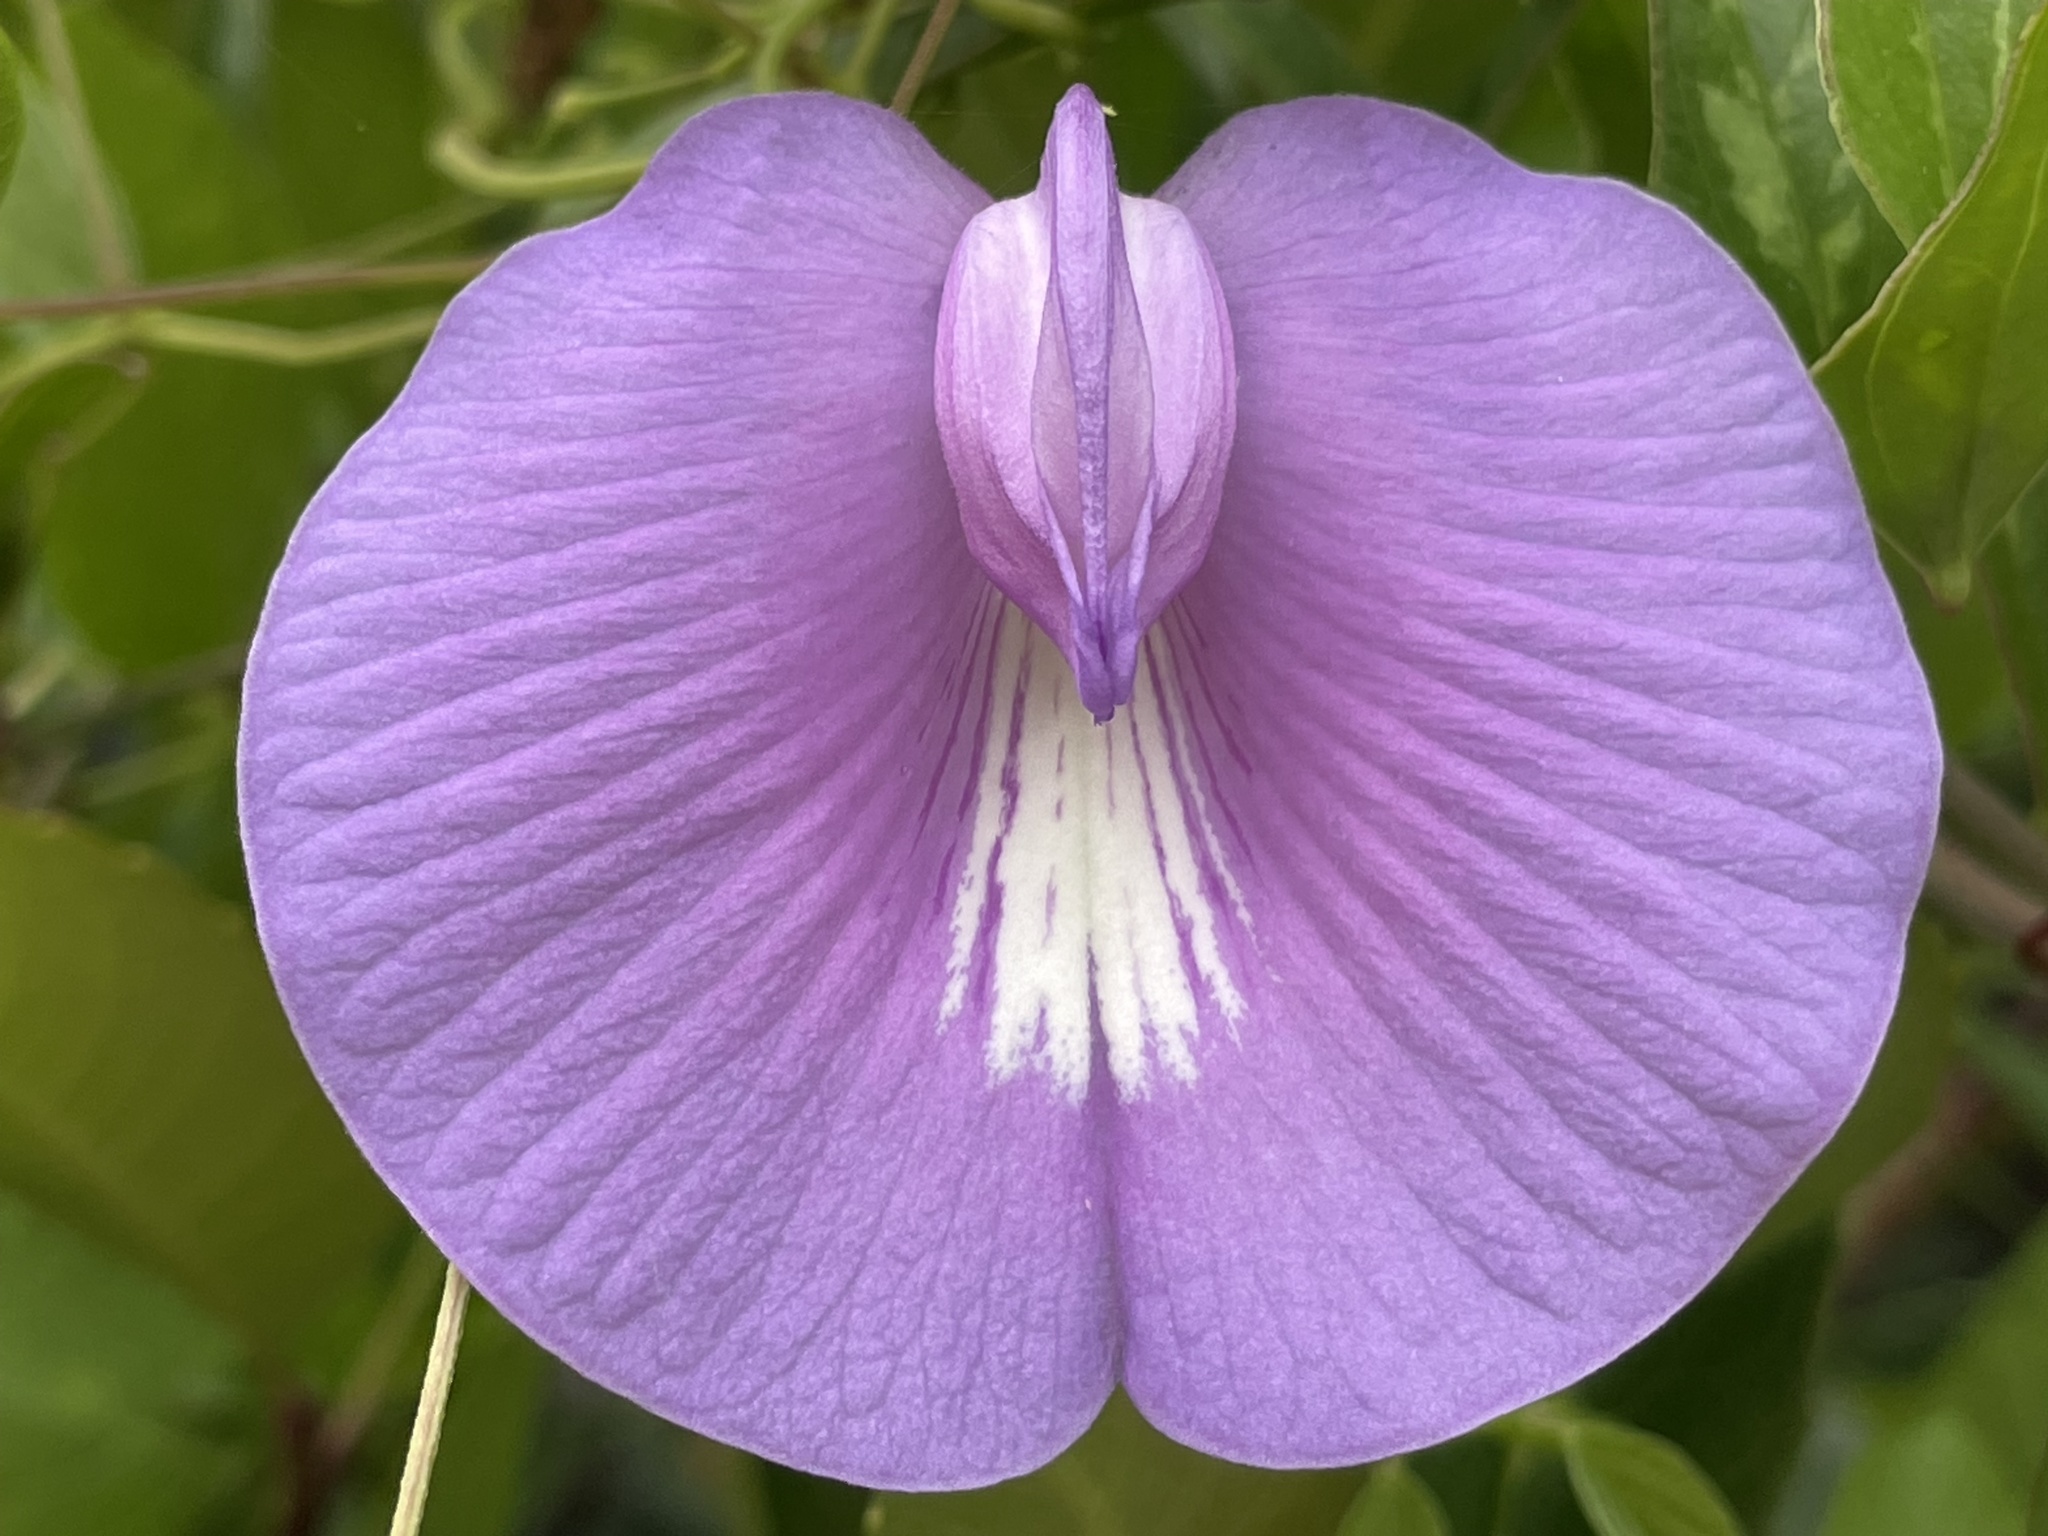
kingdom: Plantae
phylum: Tracheophyta
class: Magnoliopsida
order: Fabales
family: Fabaceae
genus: Centrosema
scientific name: Centrosema virginianum
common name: Butterfly-pea
